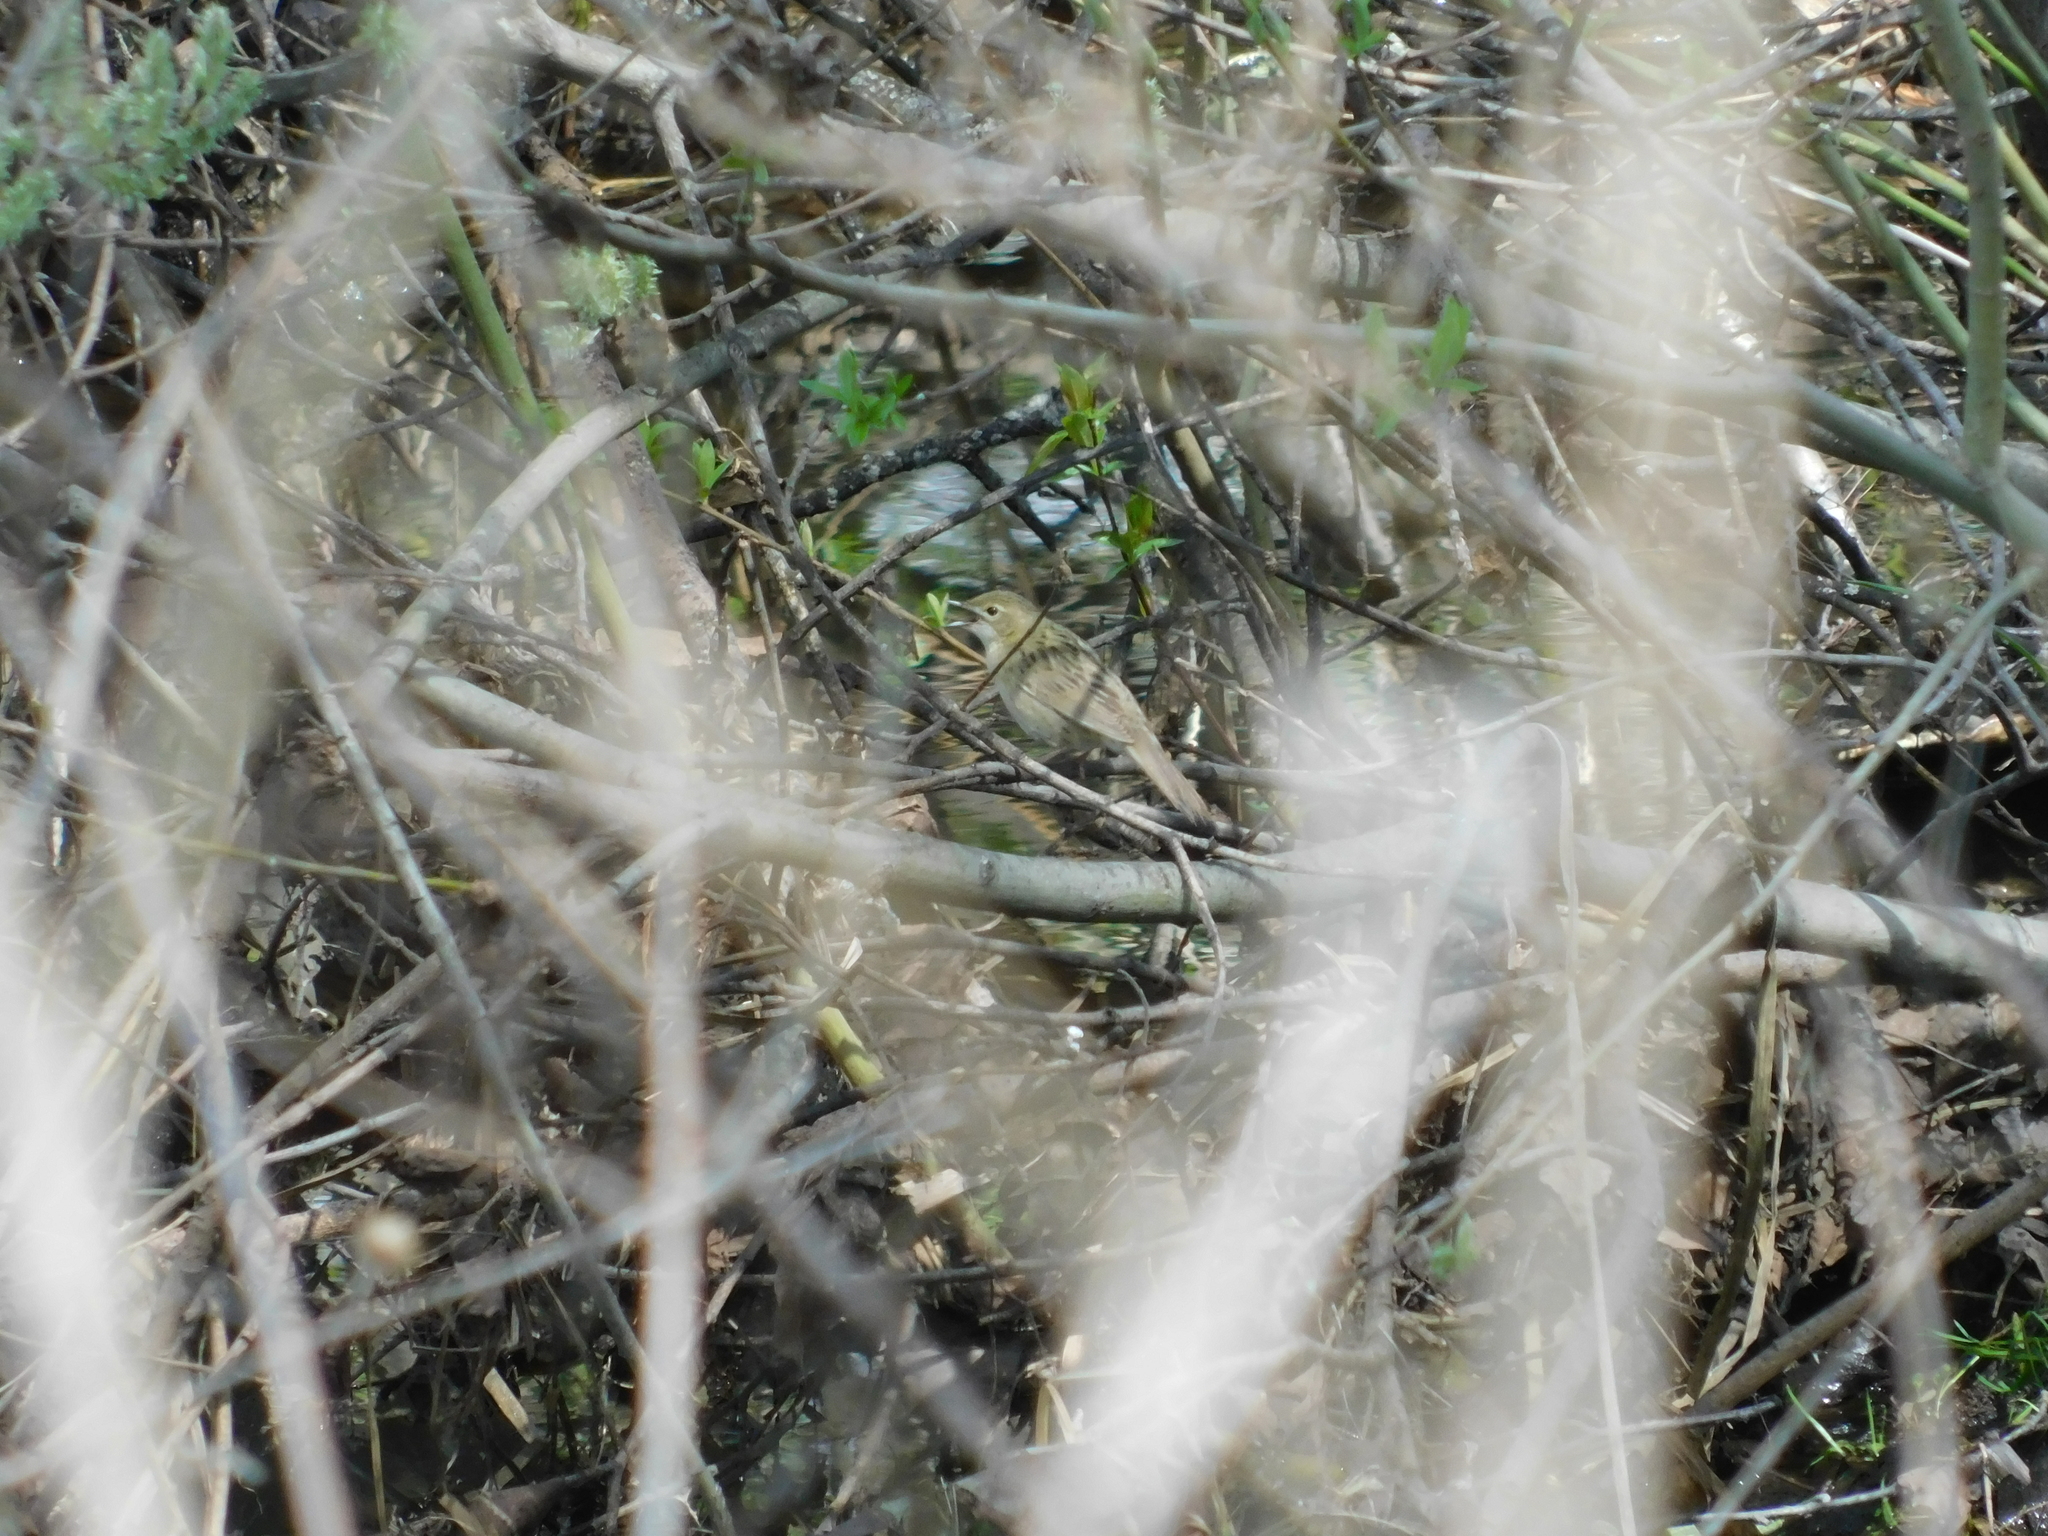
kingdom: Animalia
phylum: Chordata
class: Aves
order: Passeriformes
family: Locustellidae
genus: Locustella
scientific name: Locustella naevia
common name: Common grasshopper warbler
